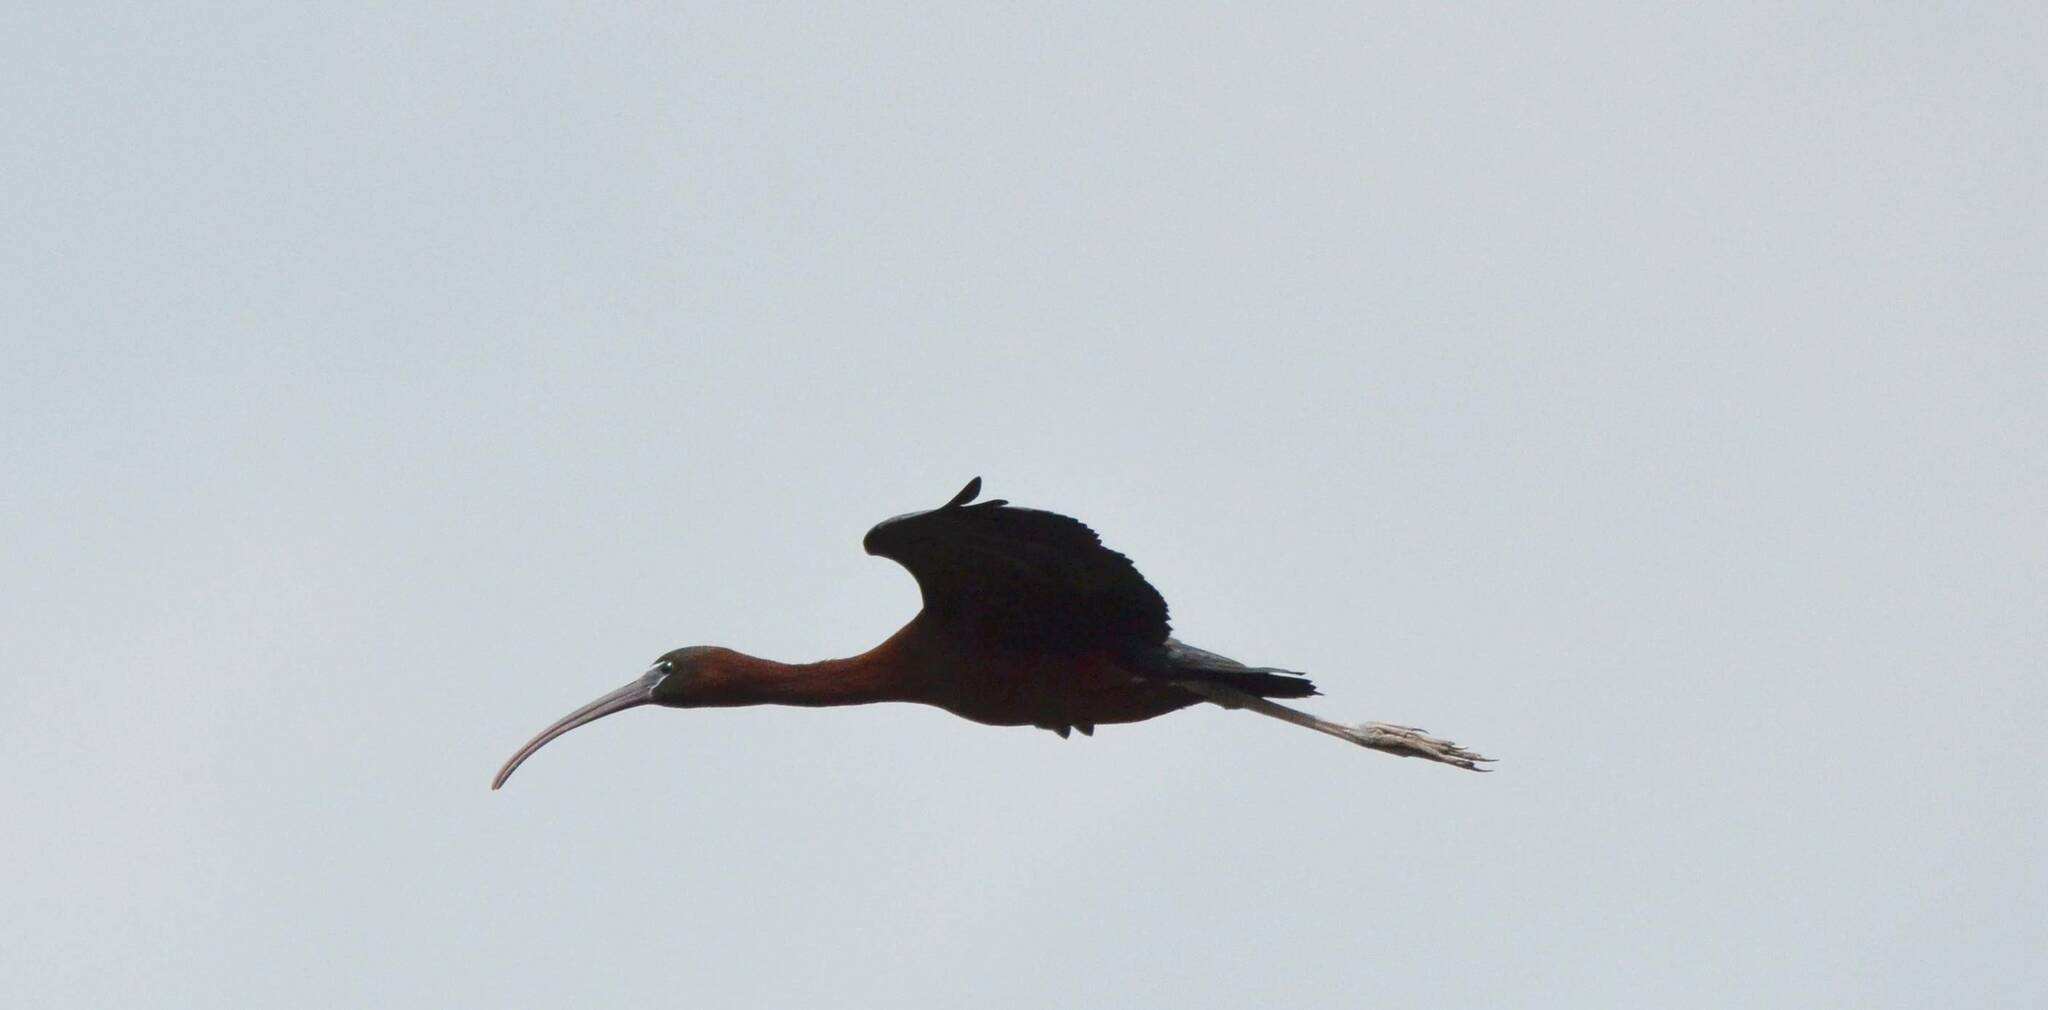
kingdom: Animalia
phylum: Chordata
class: Aves
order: Pelecaniformes
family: Threskiornithidae
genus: Plegadis
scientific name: Plegadis falcinellus
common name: Glossy ibis
